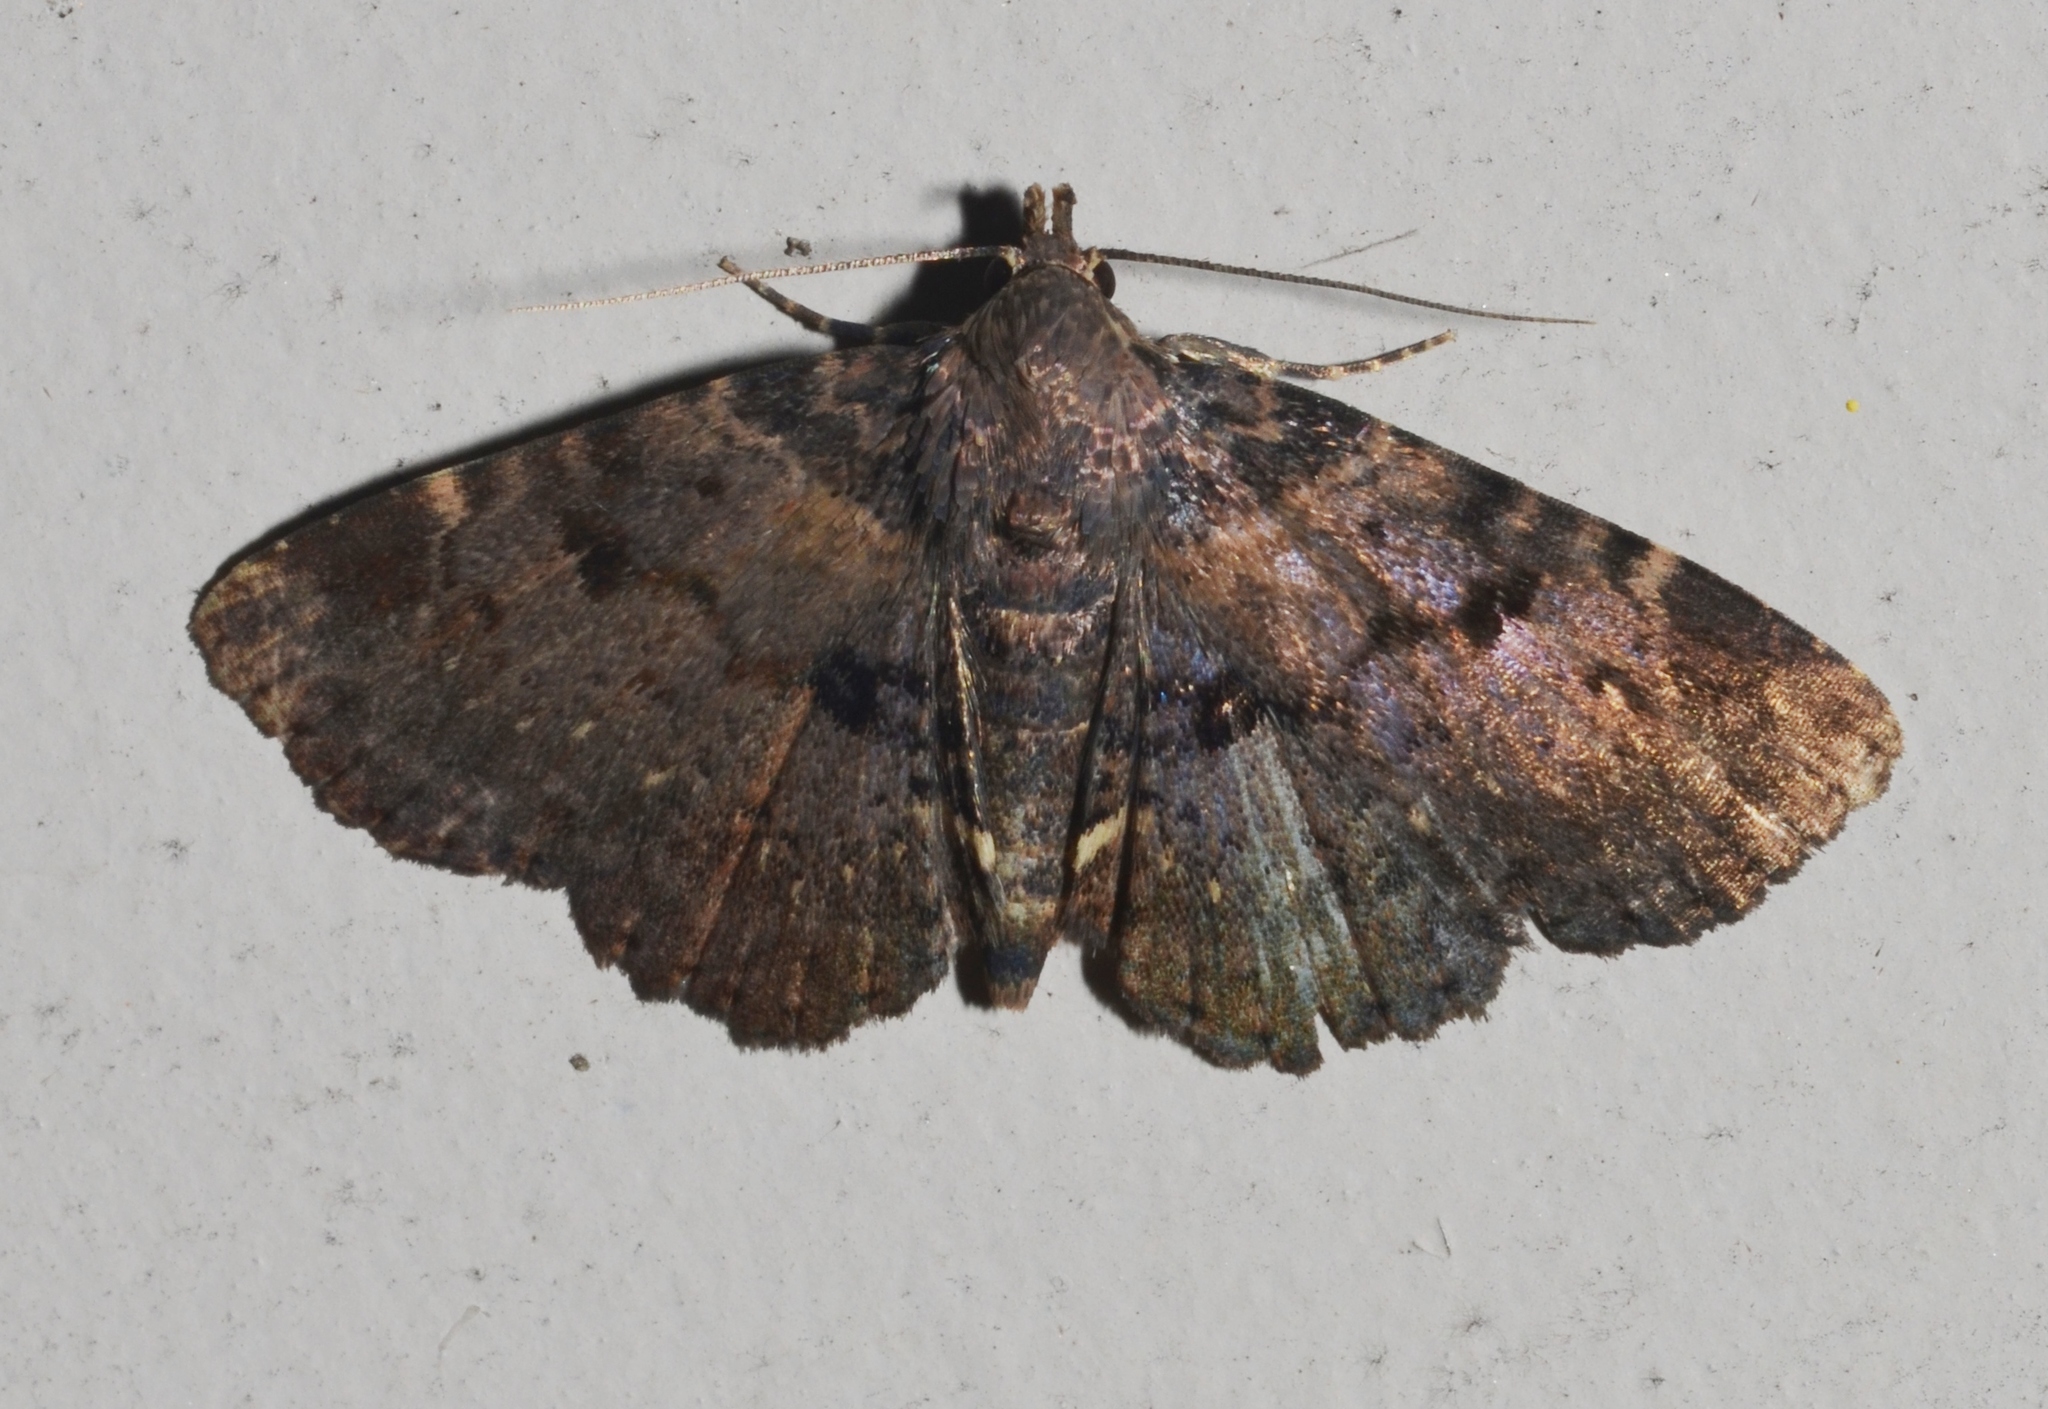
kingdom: Animalia
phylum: Arthropoda
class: Insecta
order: Lepidoptera
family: Erebidae
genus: Metalectra
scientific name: Metalectra quadrisignata
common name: Four-spotted fungus moth
